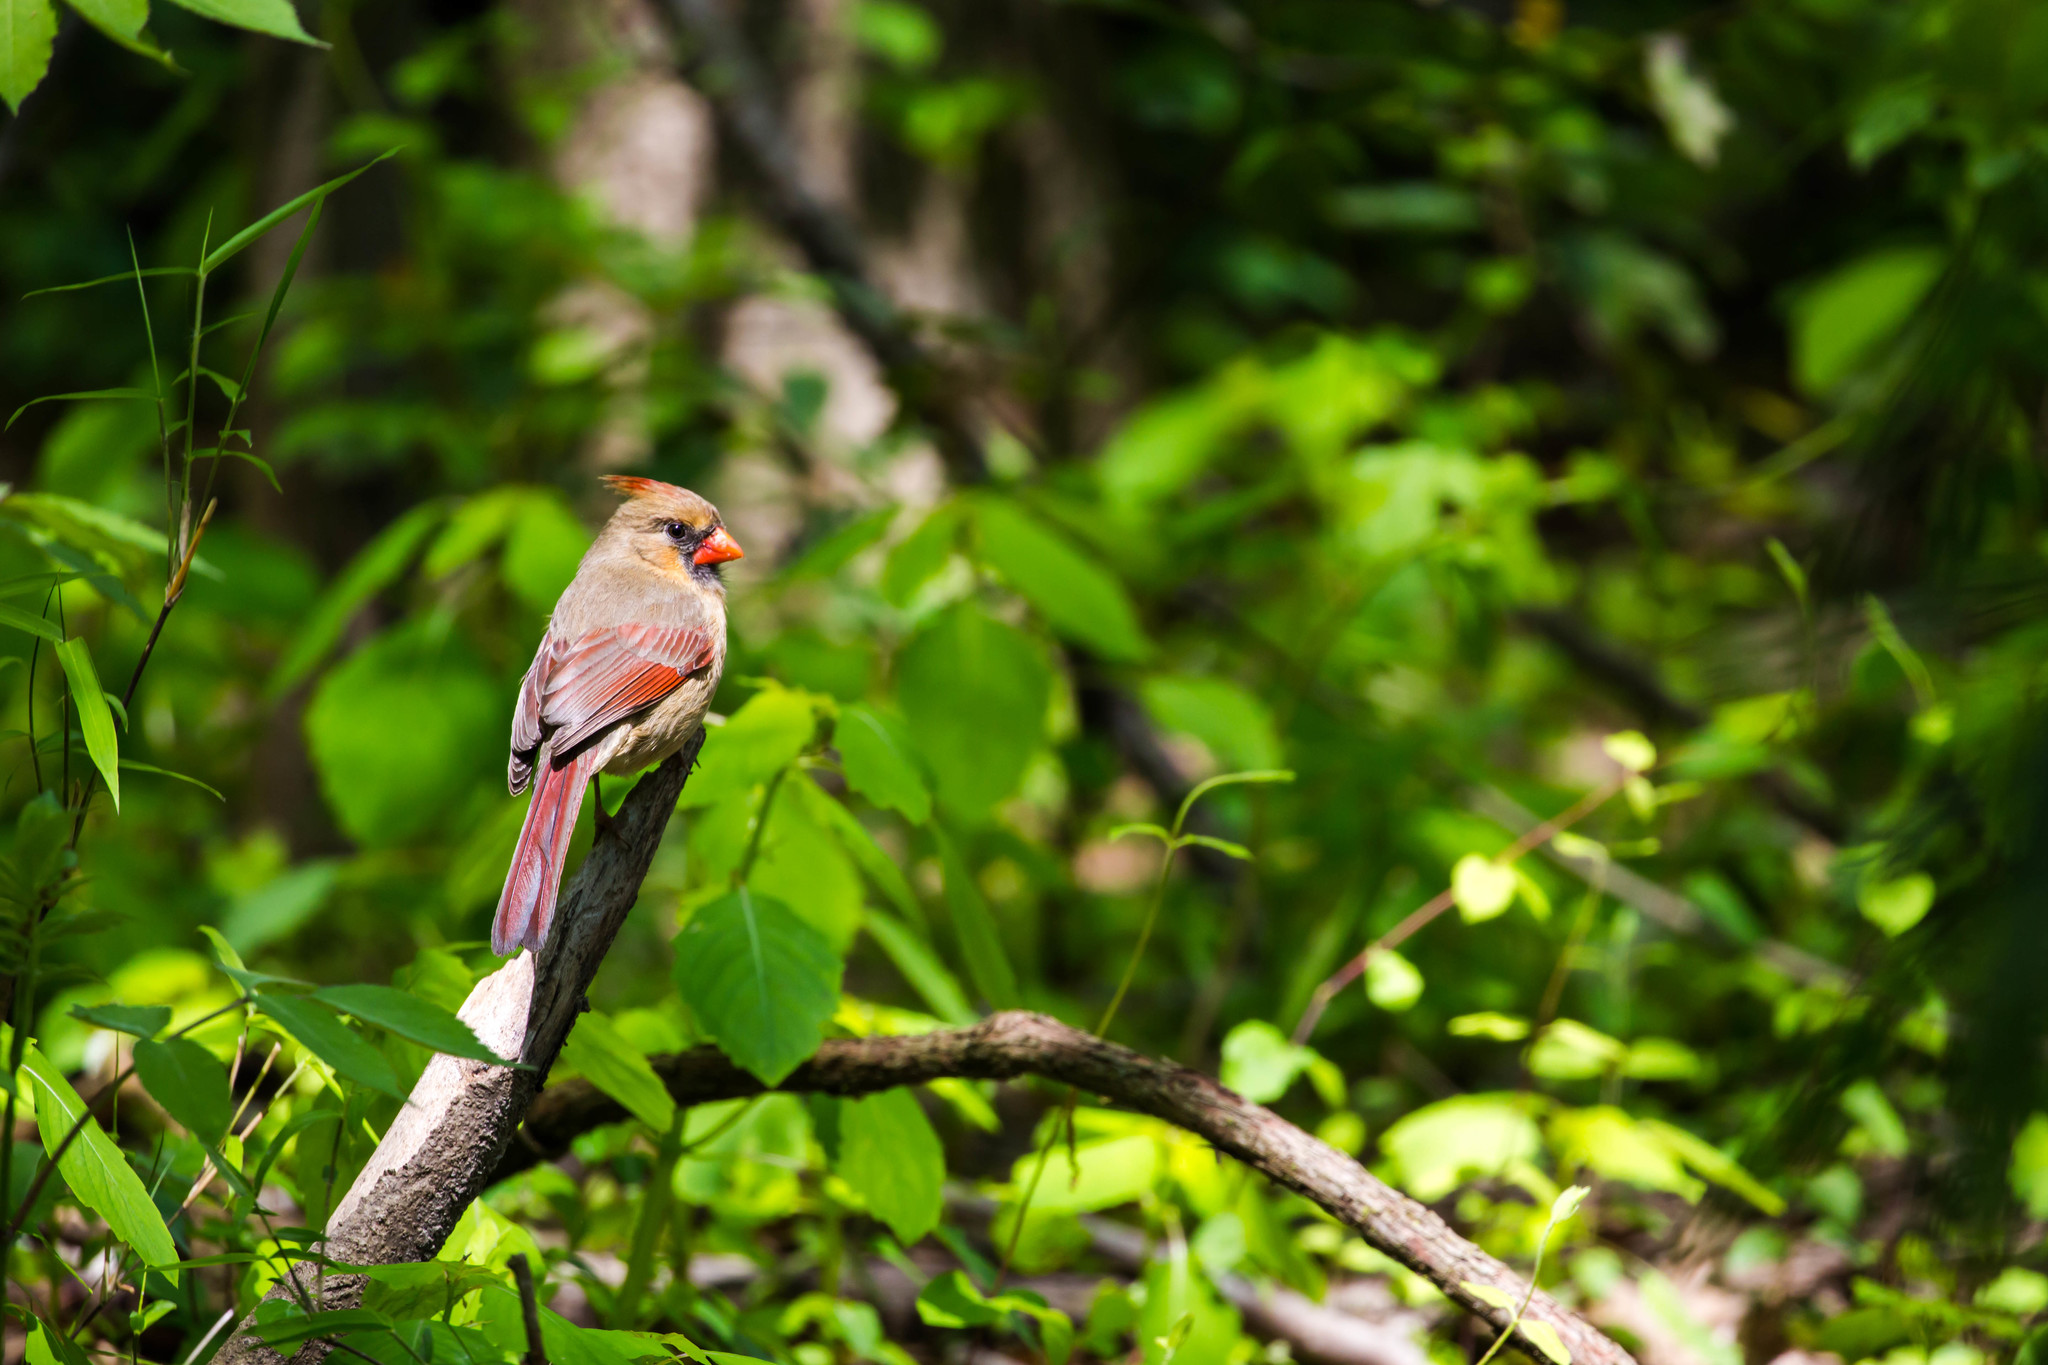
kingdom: Animalia
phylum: Chordata
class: Aves
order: Passeriformes
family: Cardinalidae
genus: Cardinalis
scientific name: Cardinalis cardinalis
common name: Northern cardinal
